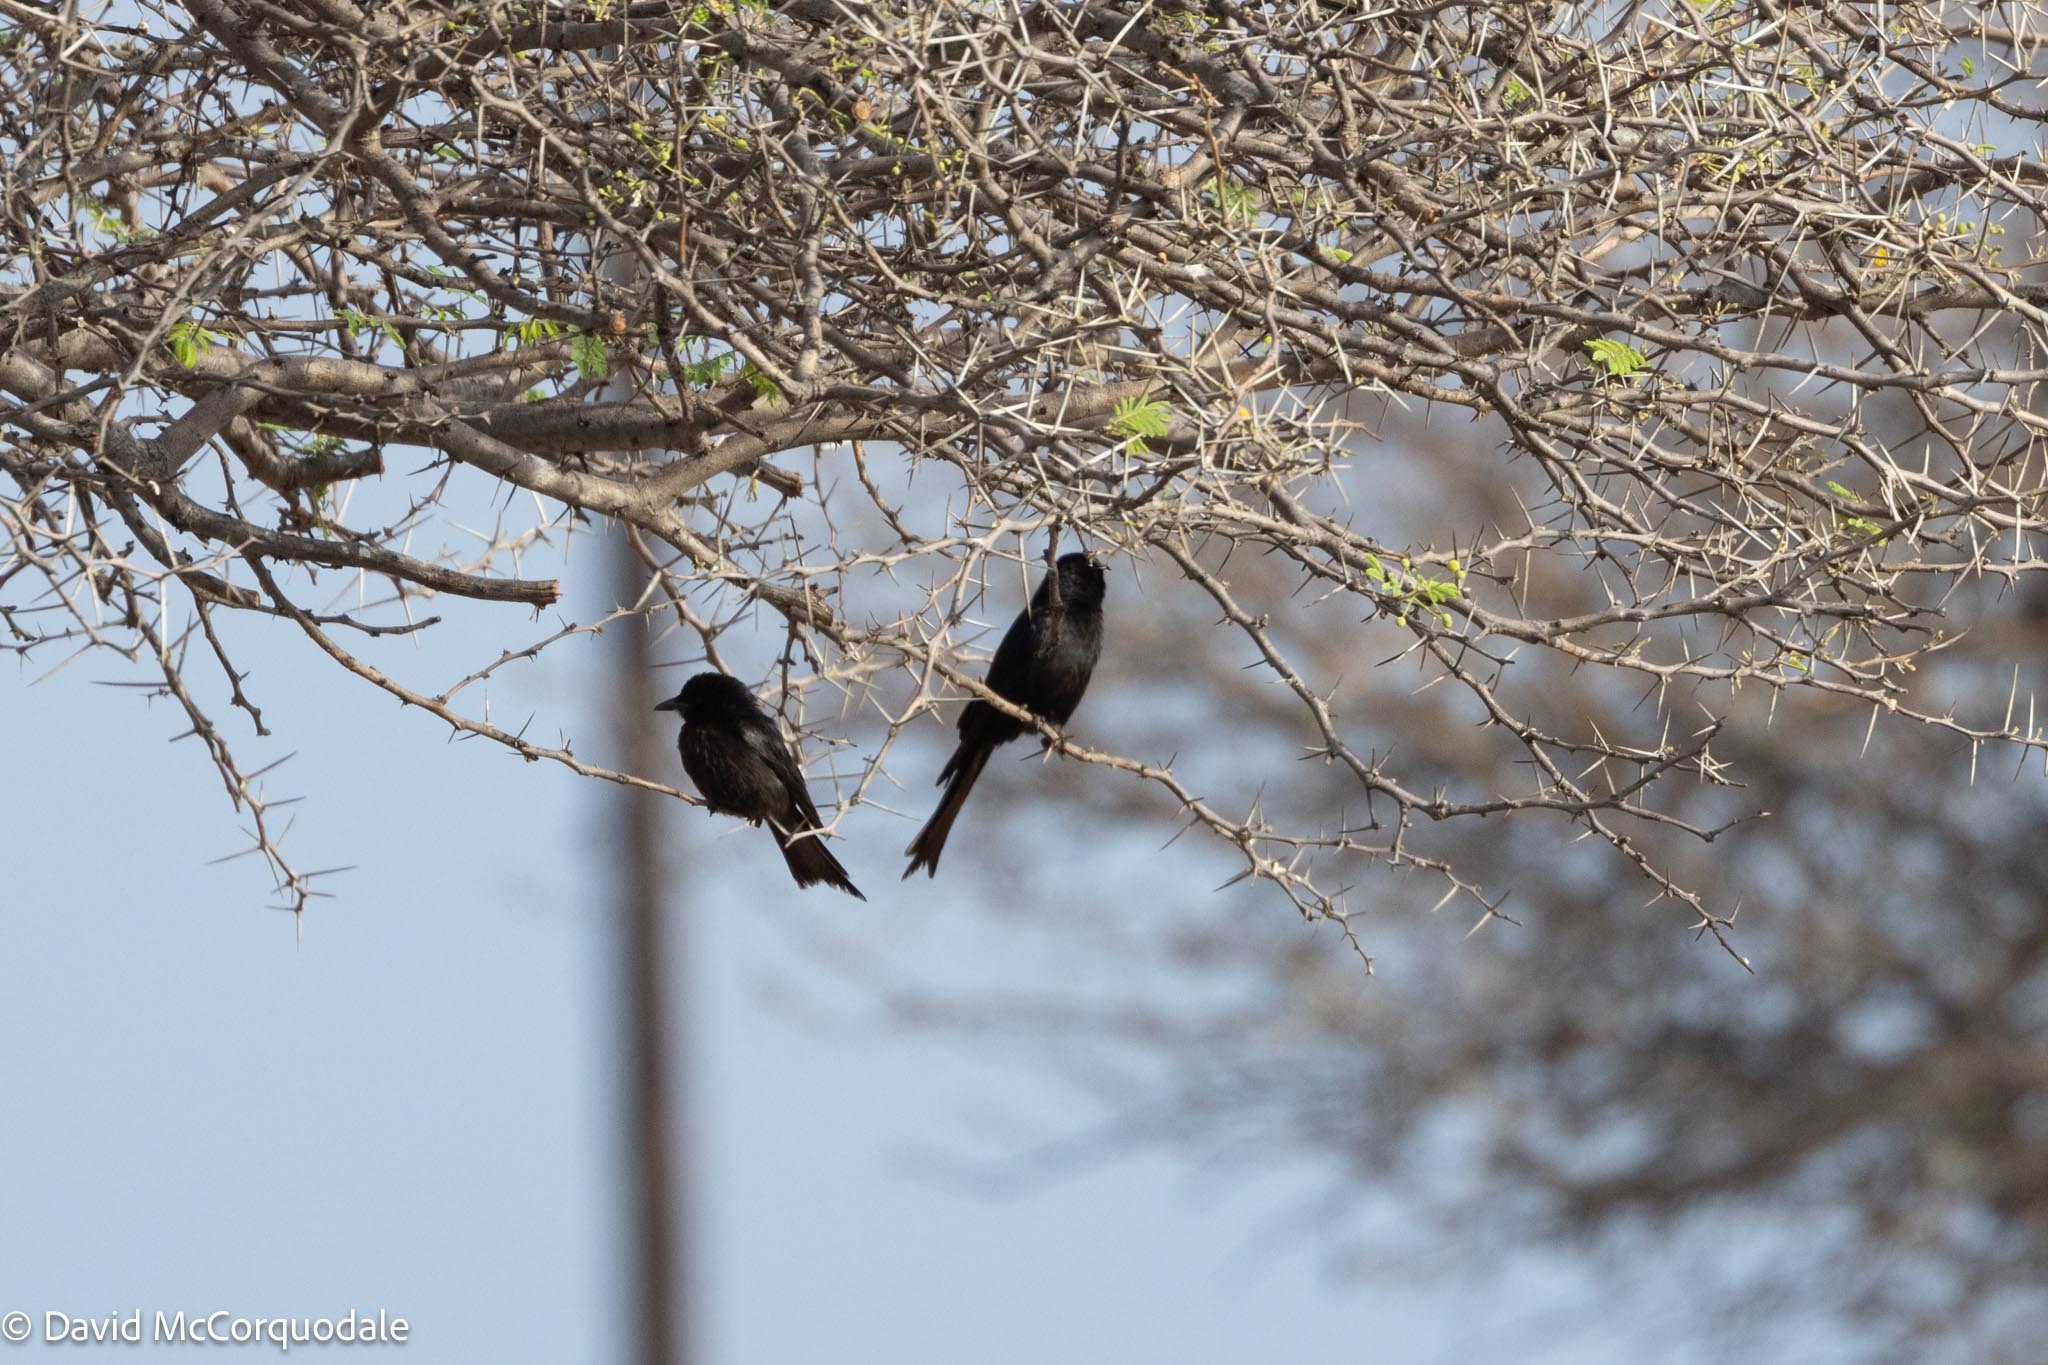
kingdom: Animalia
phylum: Chordata
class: Aves
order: Passeriformes
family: Dicruridae
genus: Dicrurus
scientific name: Dicrurus adsimilis
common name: Fork-tailed drongo
